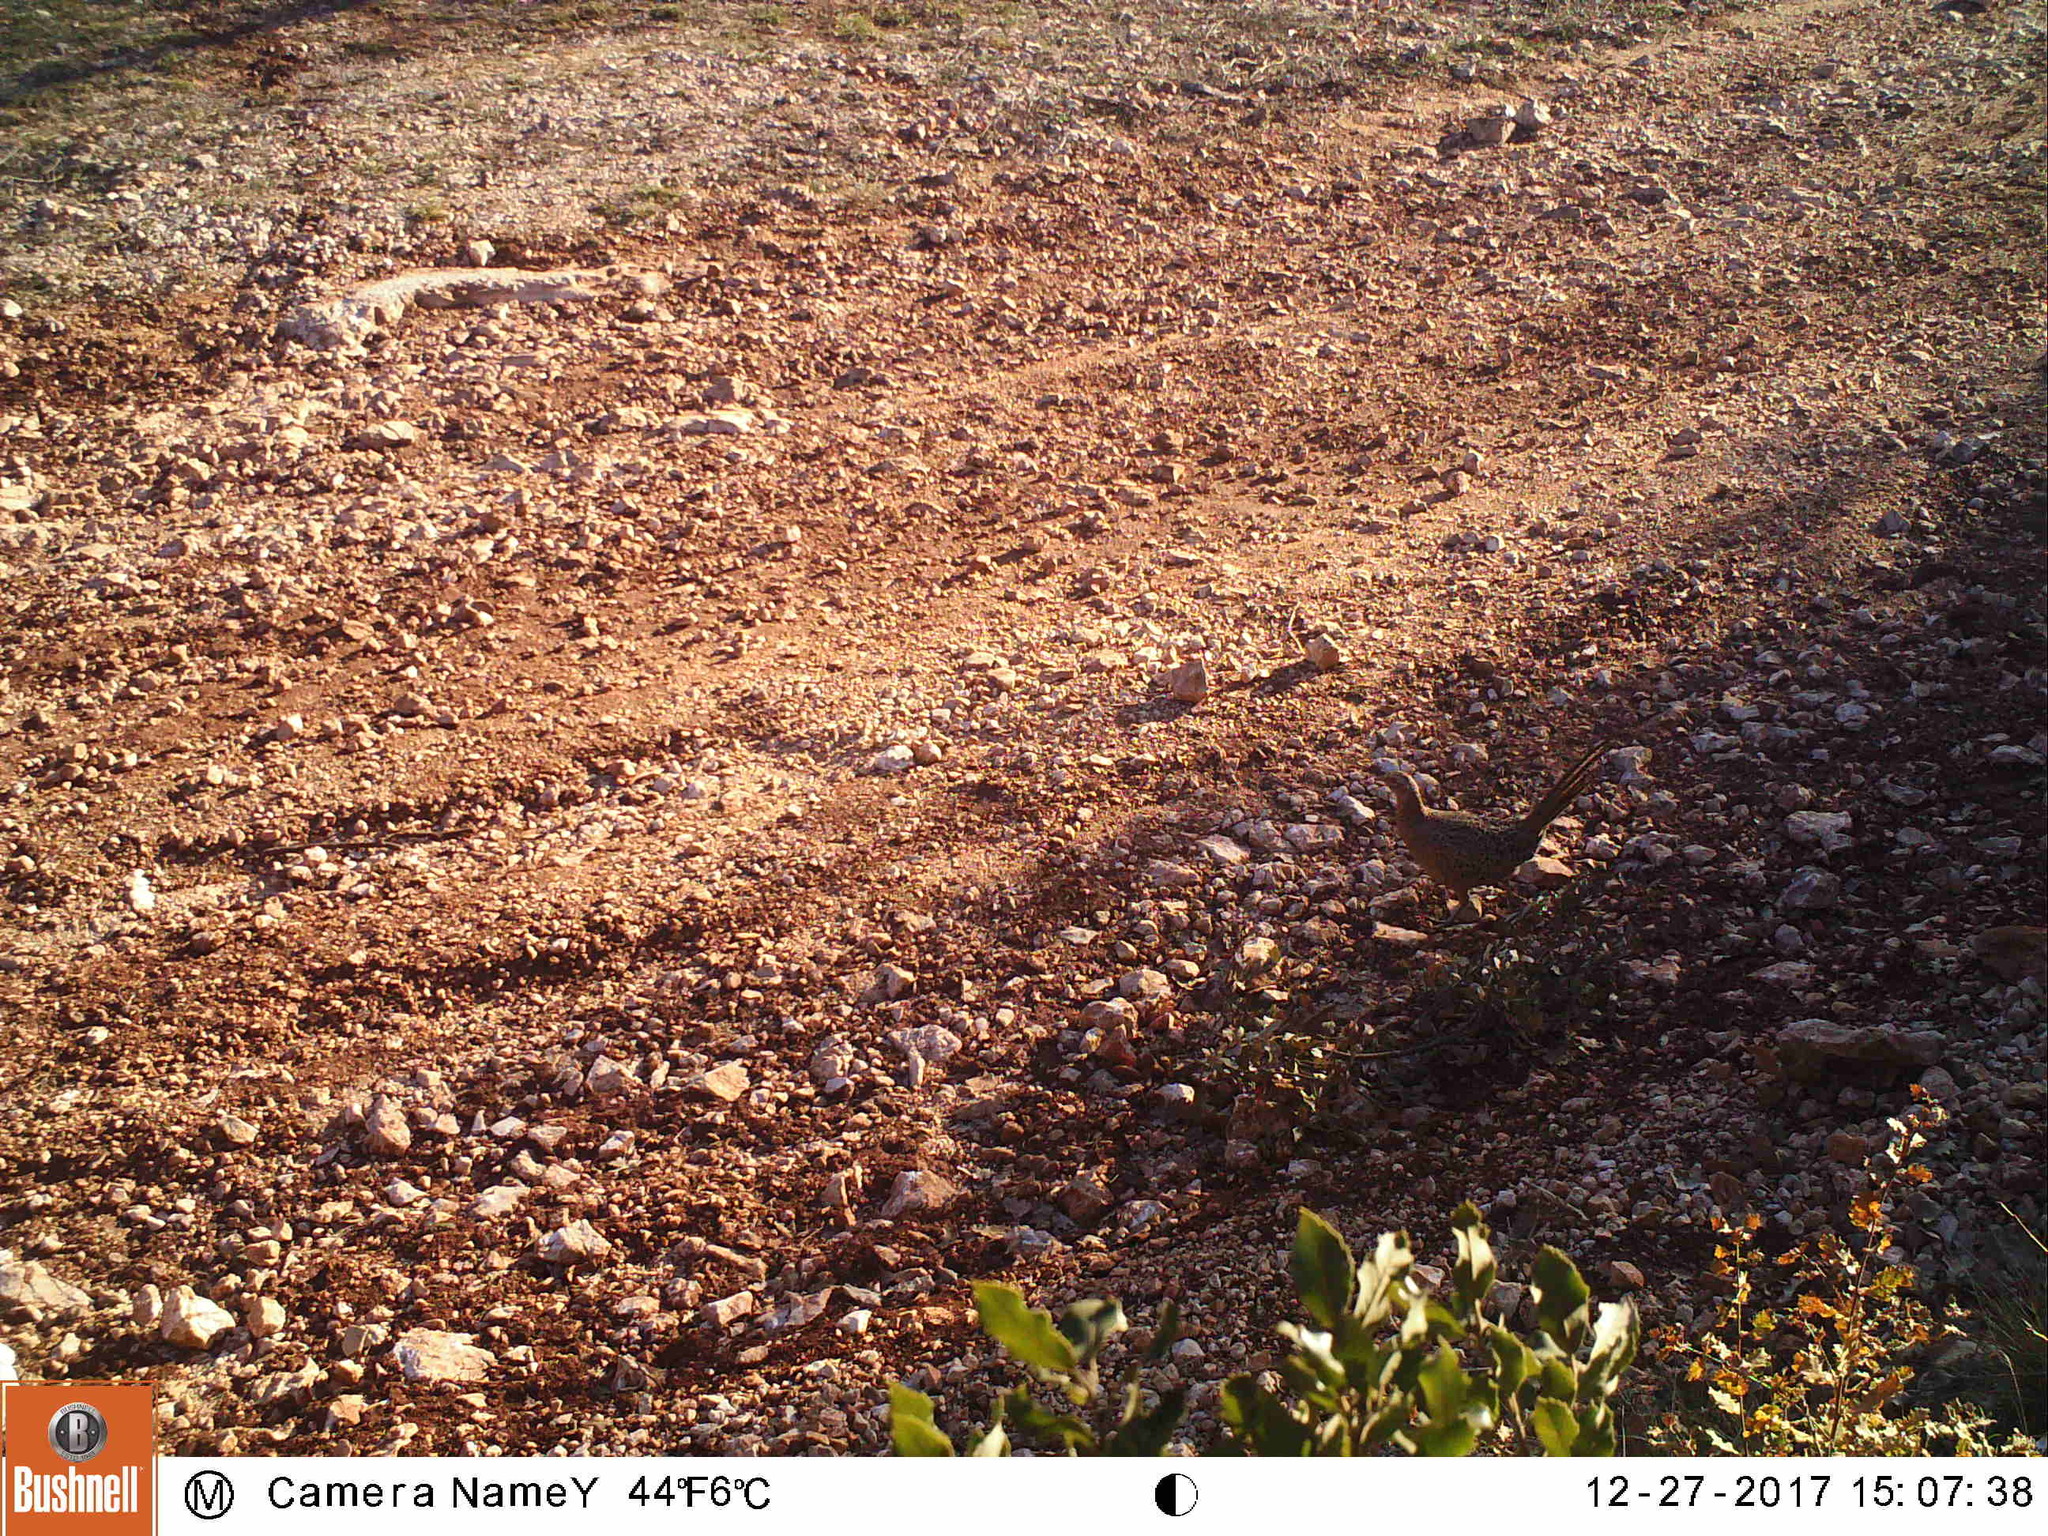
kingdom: Animalia
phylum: Chordata
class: Aves
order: Galliformes
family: Phasianidae
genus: Phasianus
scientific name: Phasianus colchicus
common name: Common pheasant
